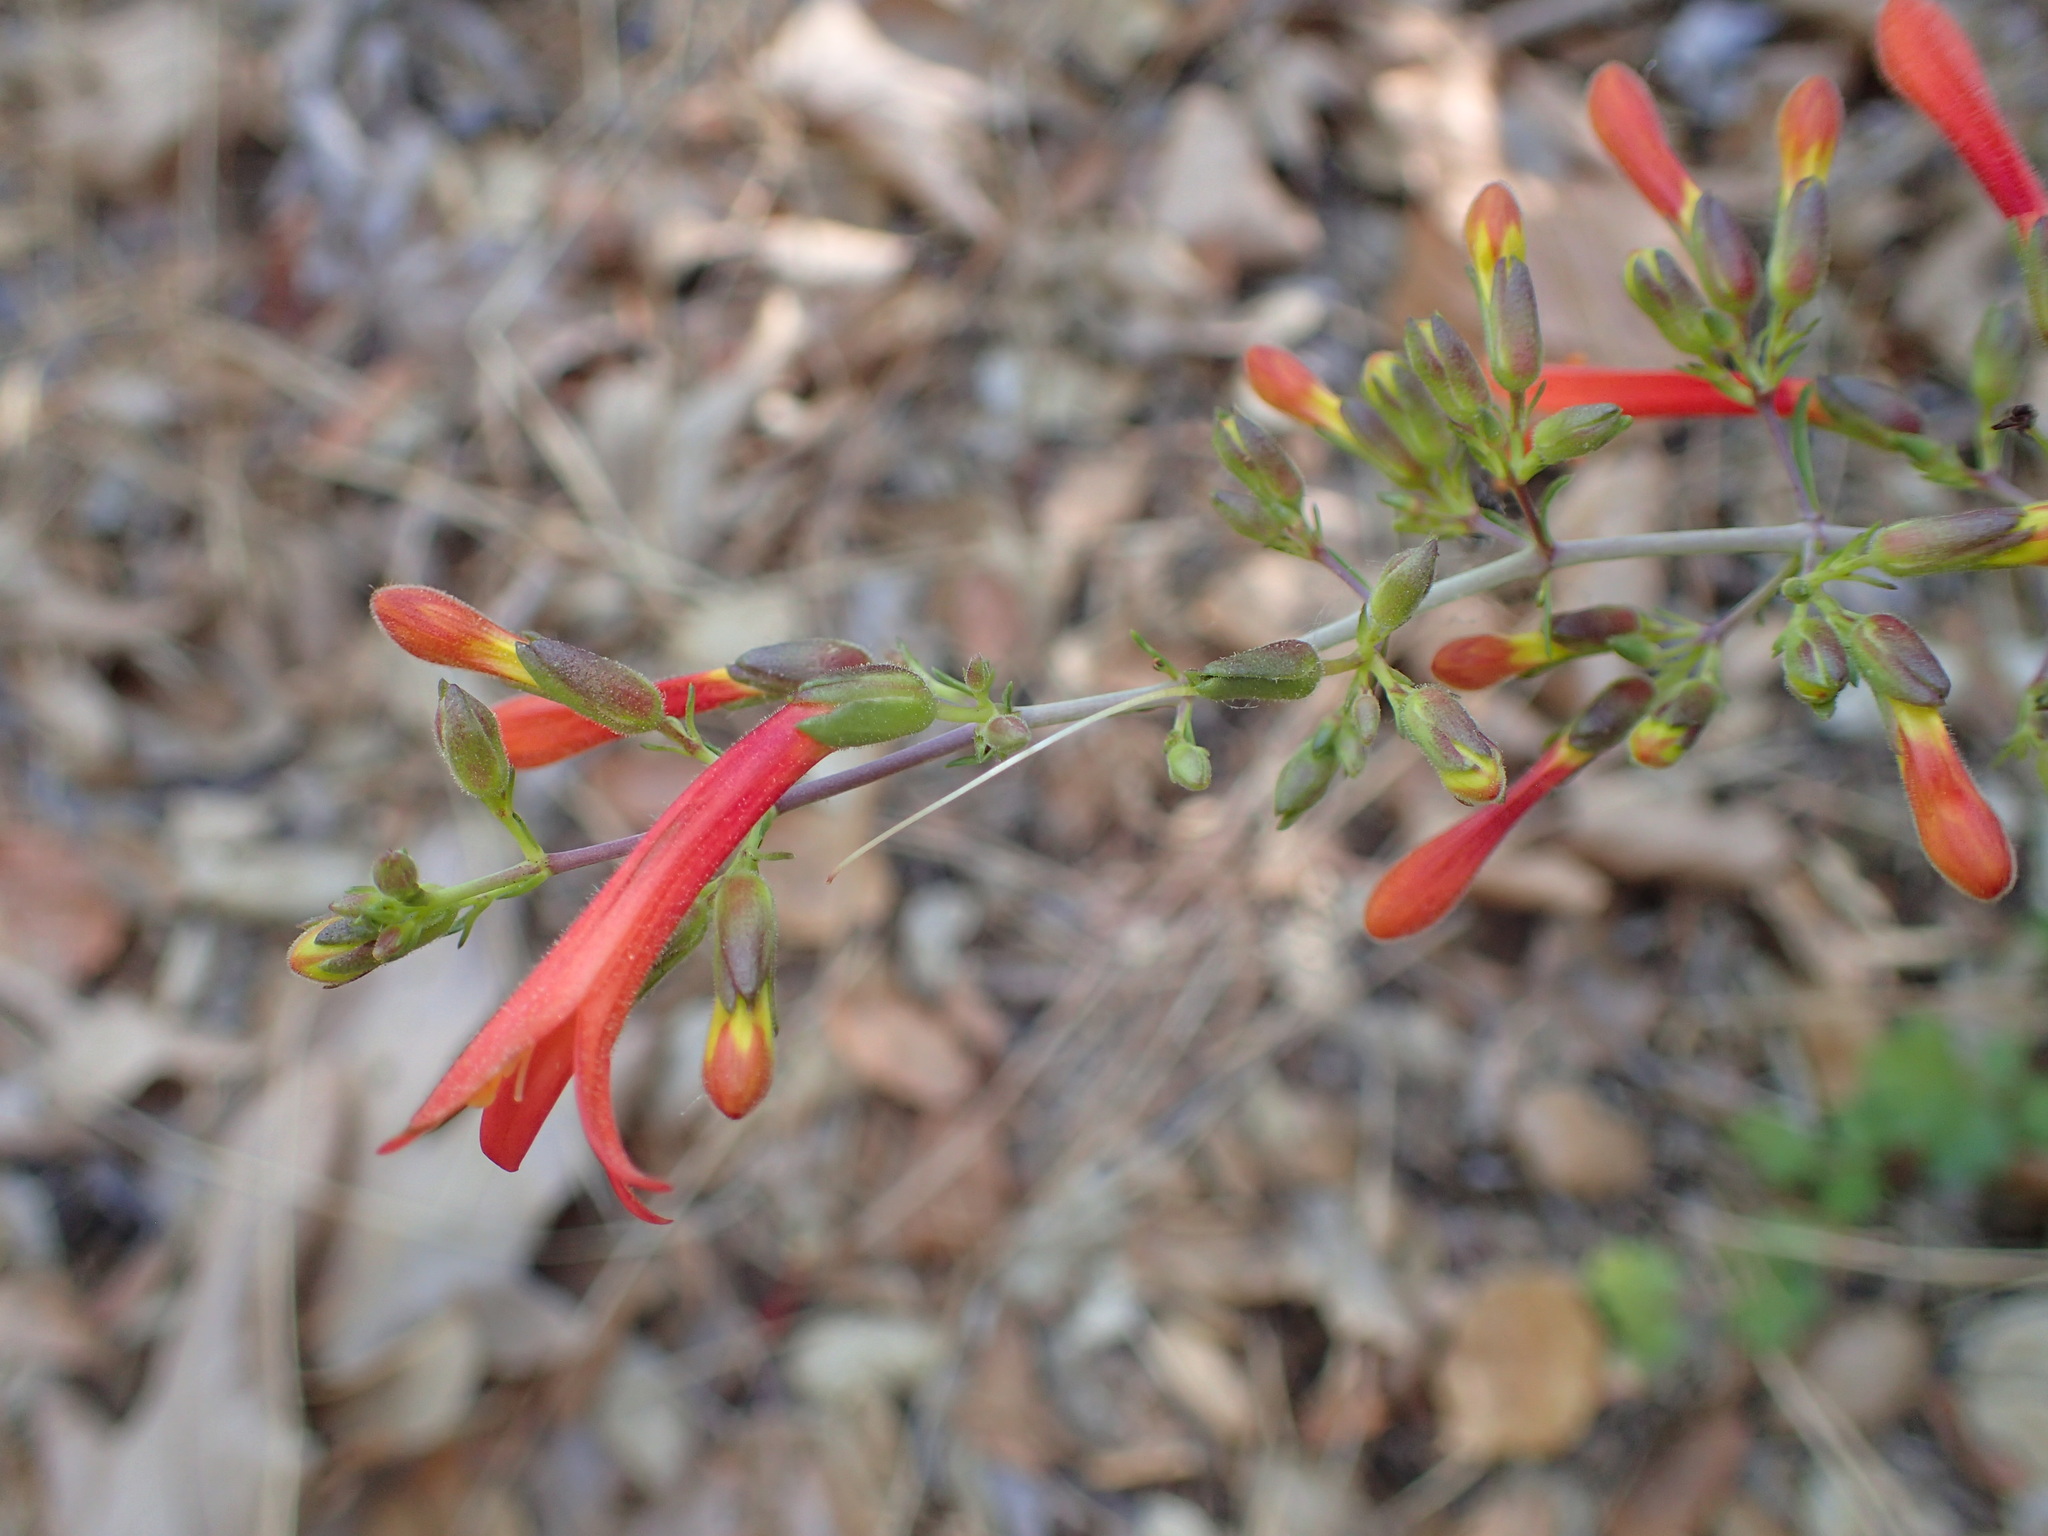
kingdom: Plantae
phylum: Tracheophyta
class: Magnoliopsida
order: Lamiales
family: Plantaginaceae
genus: Keckiella
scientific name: Keckiella ternata
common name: Scarlet keckiella
